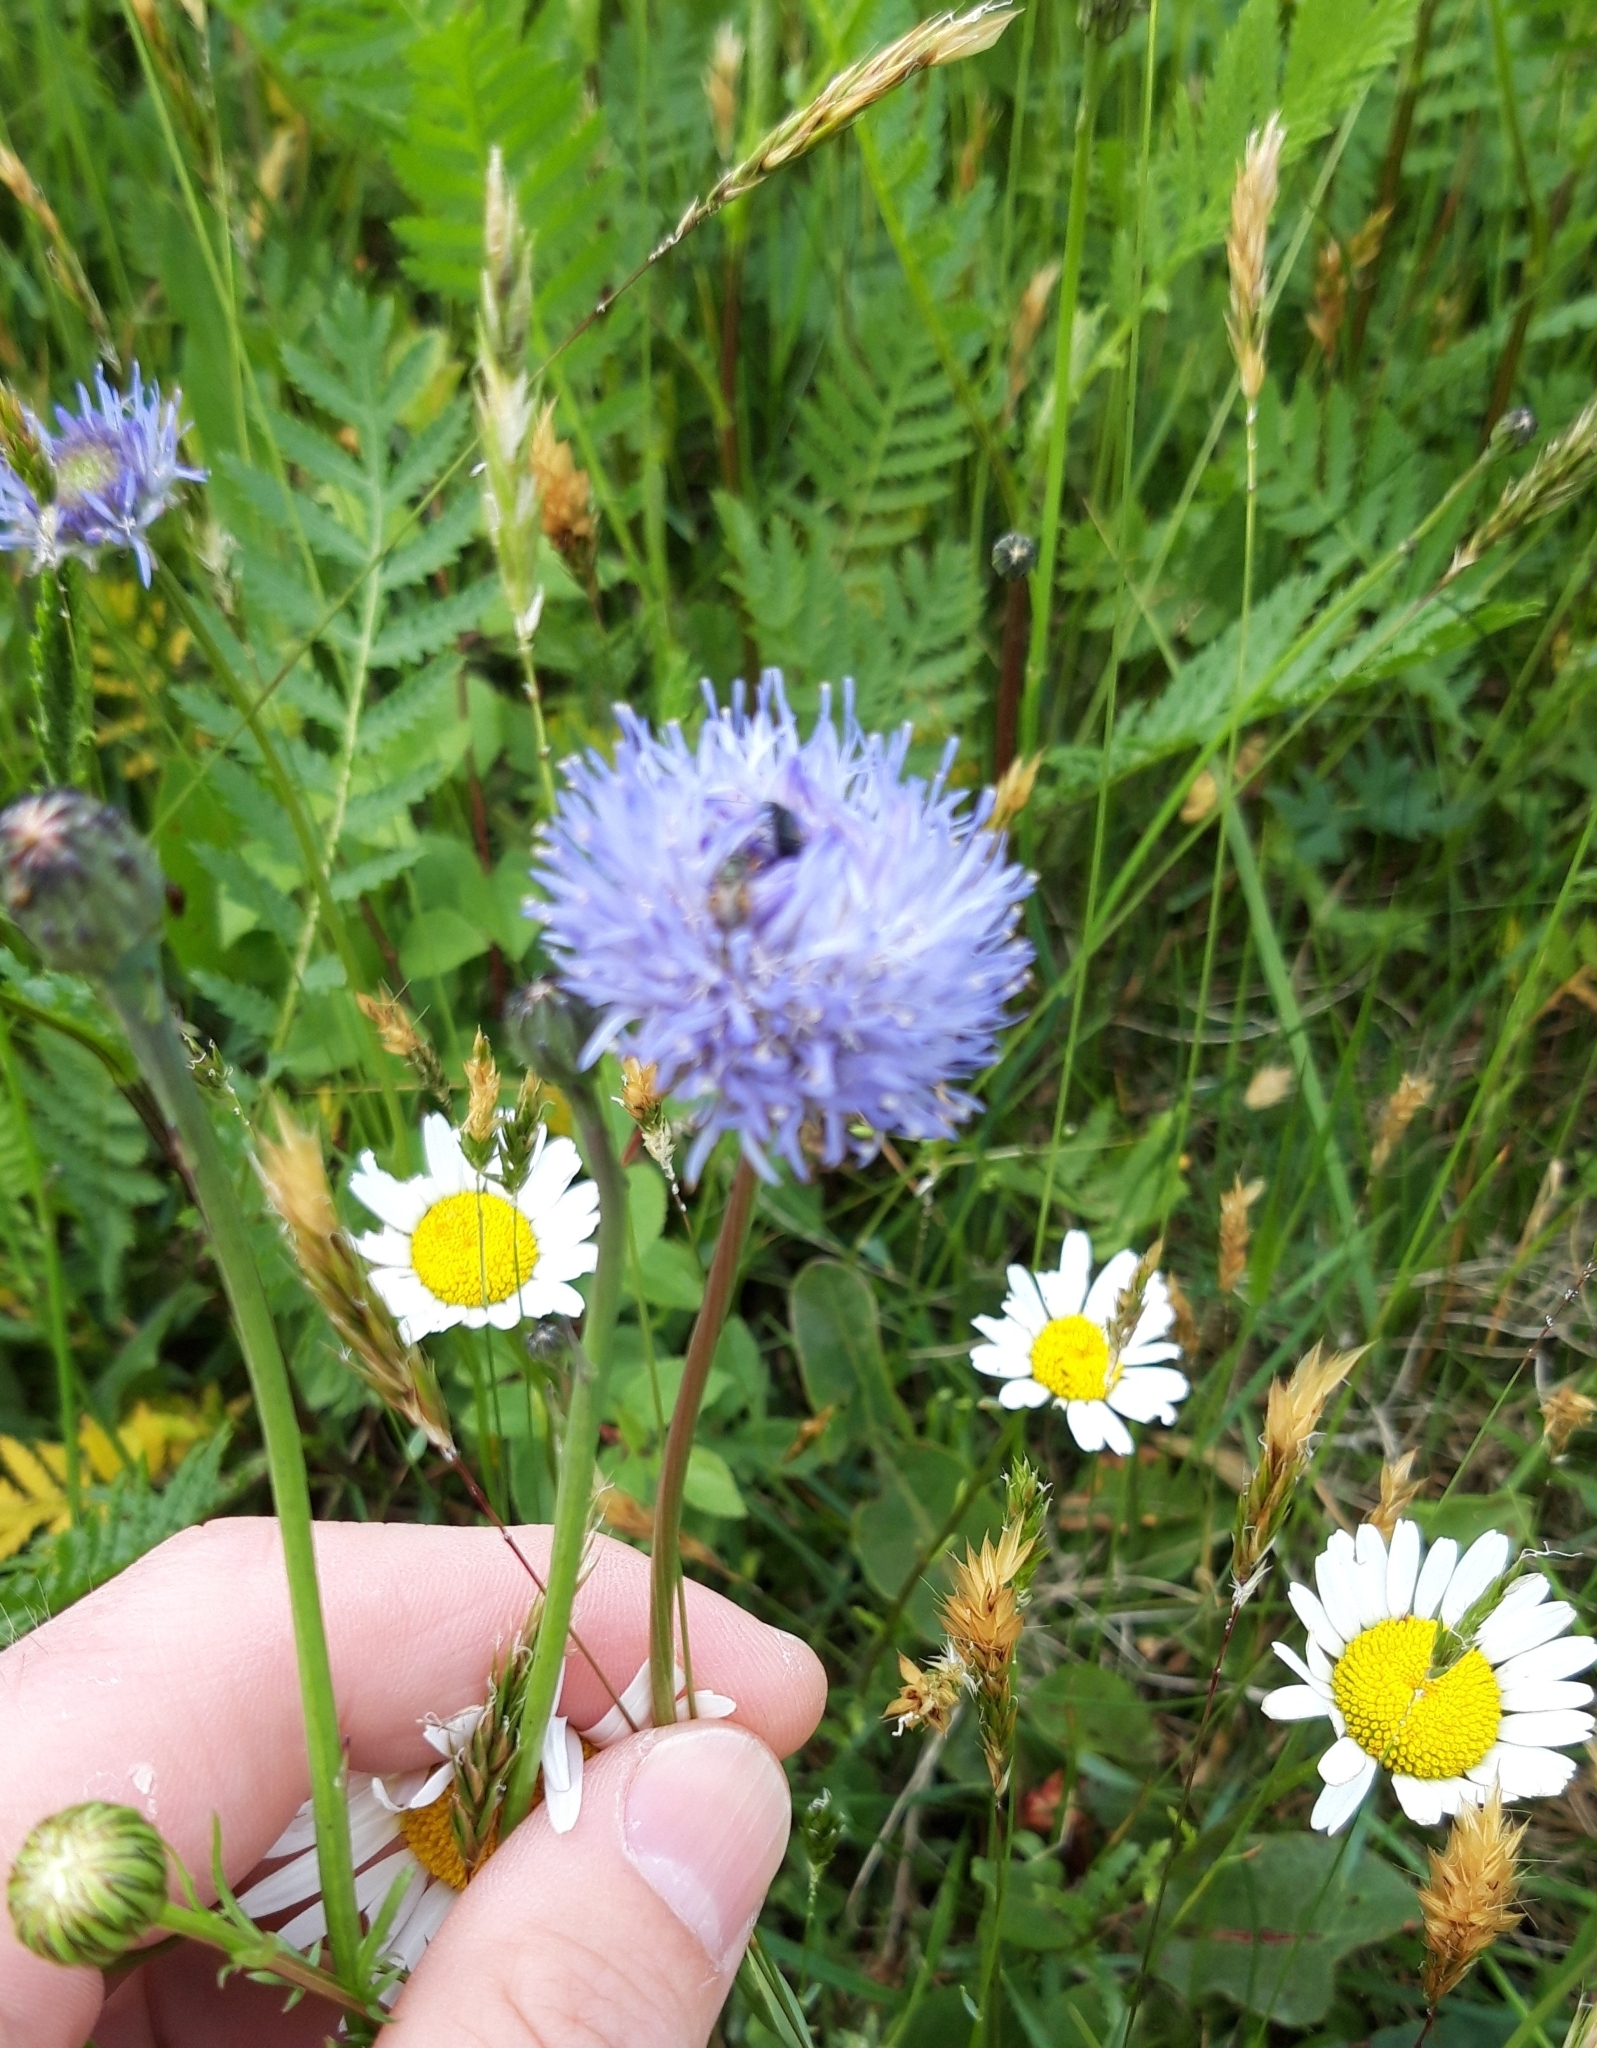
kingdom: Plantae
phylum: Tracheophyta
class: Magnoliopsida
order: Asterales
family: Campanulaceae
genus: Jasione
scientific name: Jasione montana
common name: Sheep's-bit
